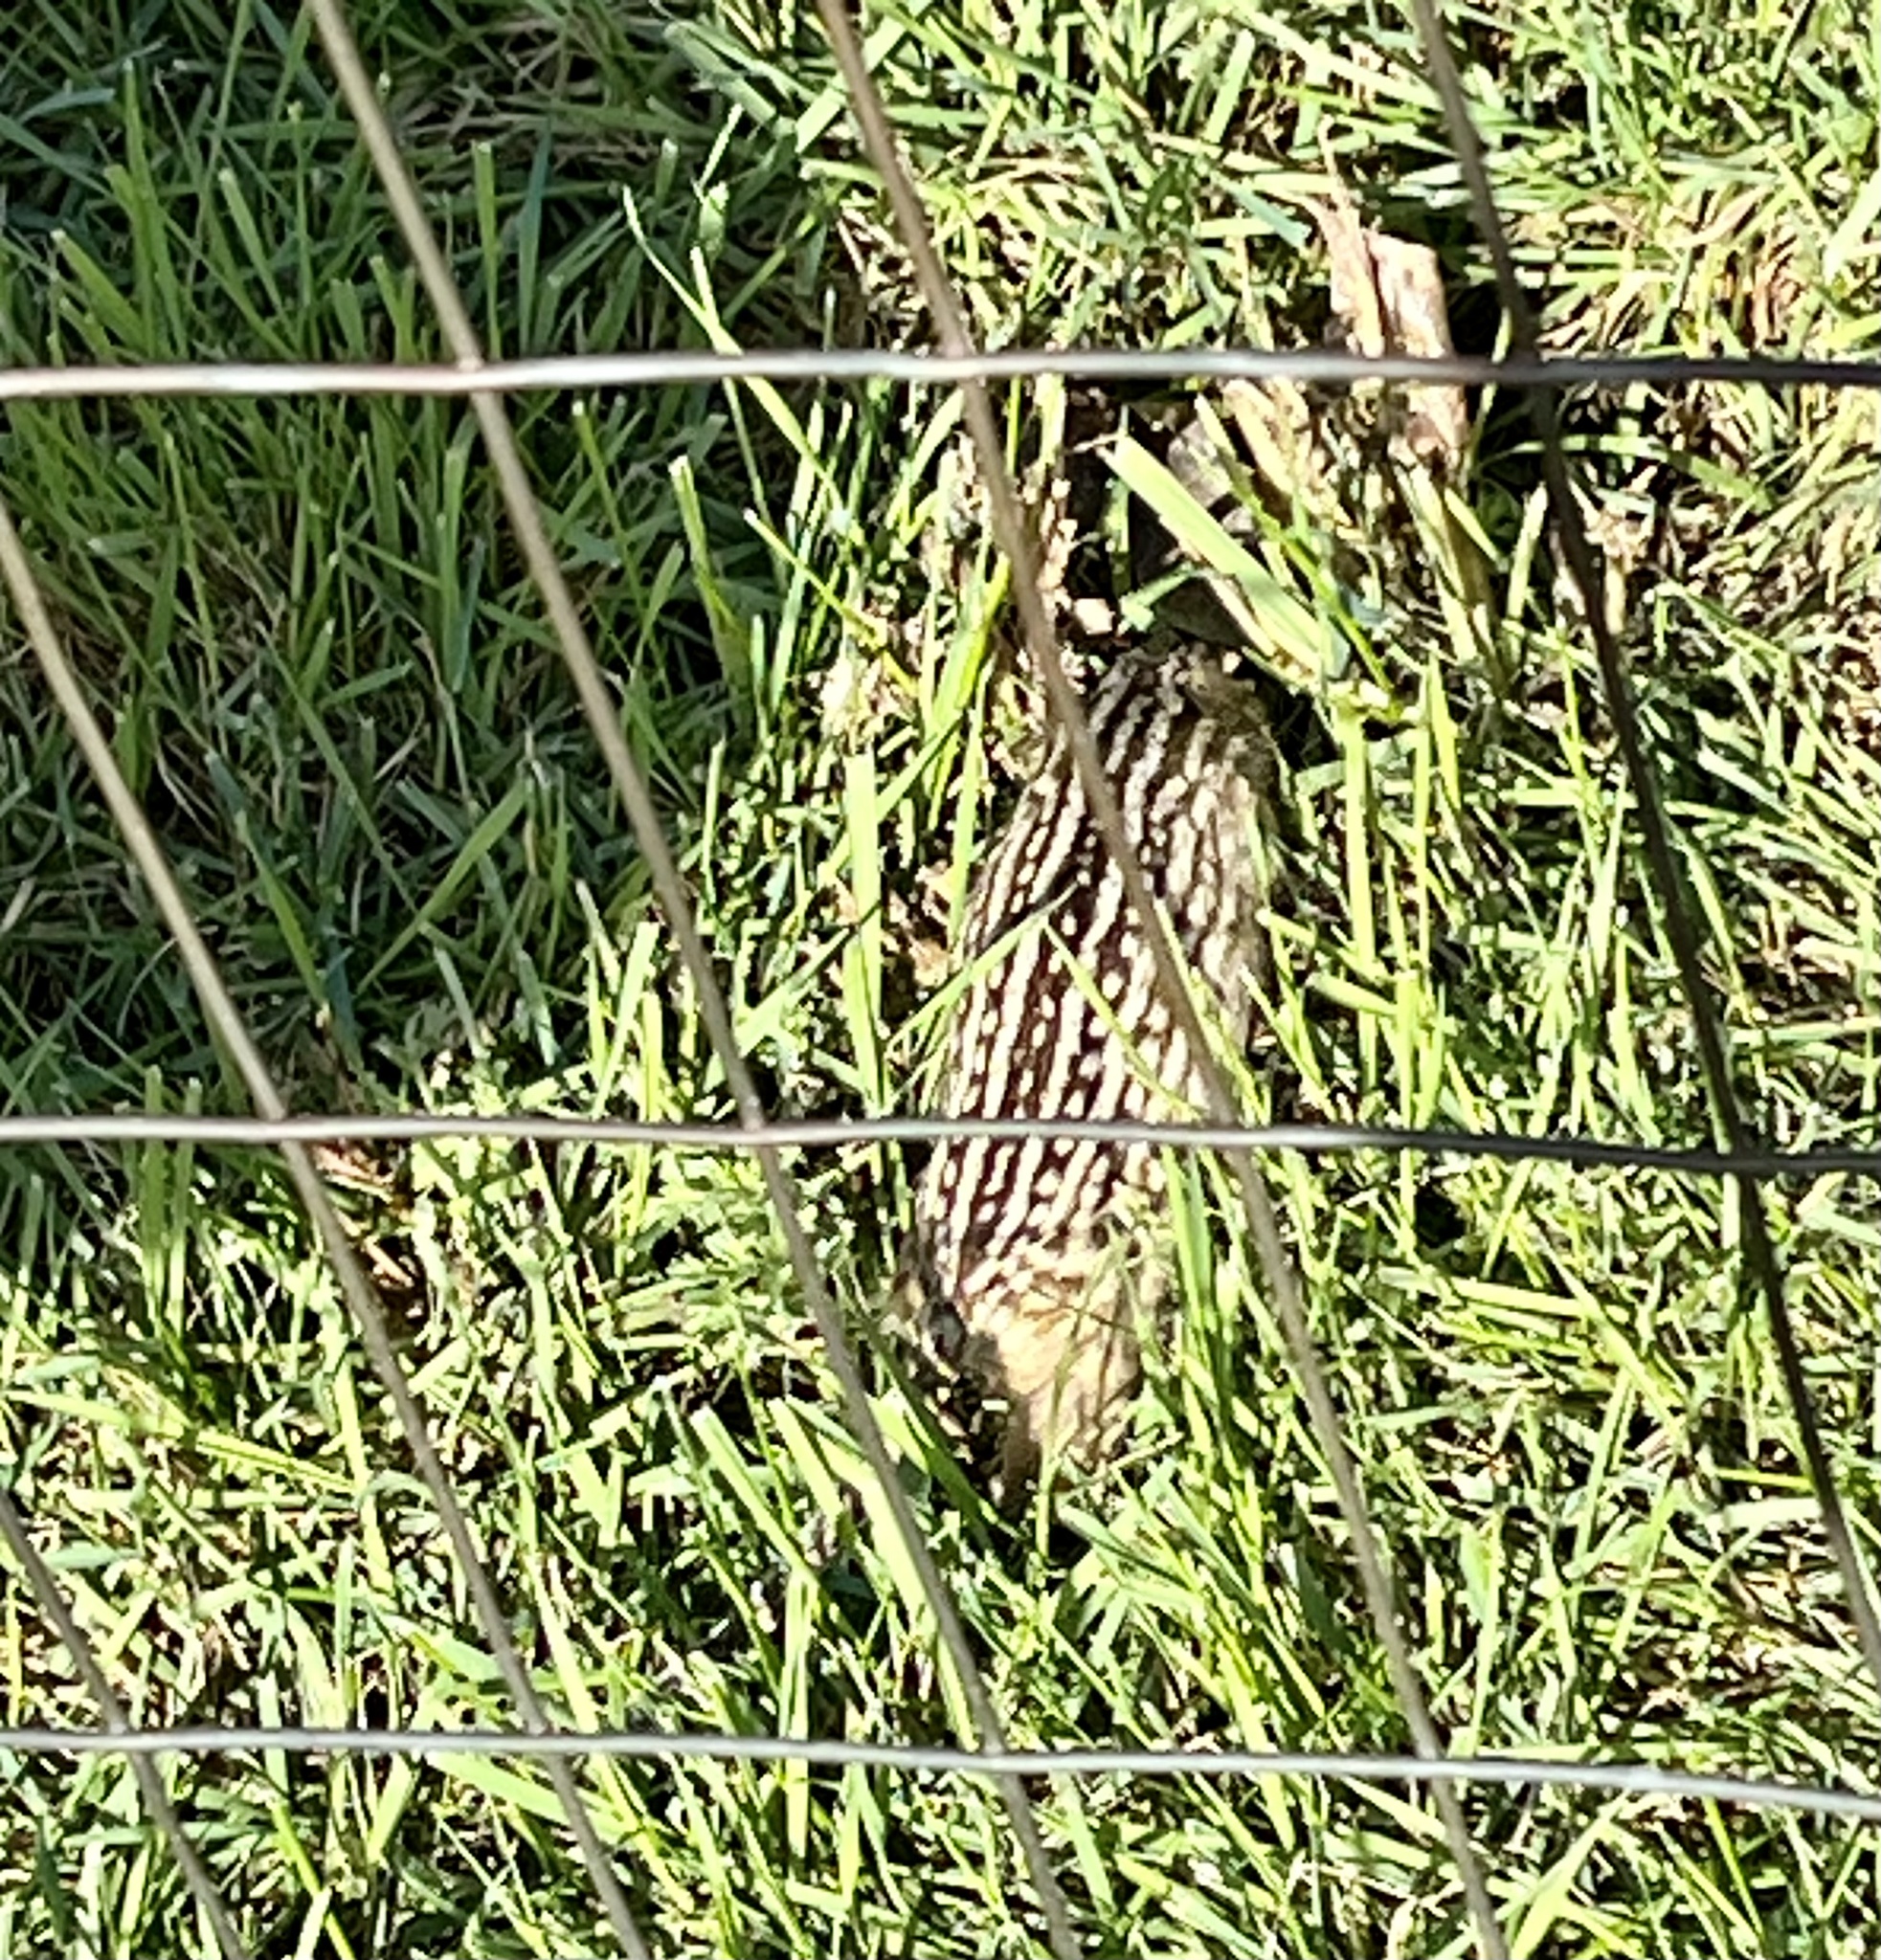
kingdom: Animalia
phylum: Chordata
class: Mammalia
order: Rodentia
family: Sciuridae
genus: Ictidomys
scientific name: Ictidomys tridecemlineatus
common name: Thirteen-lined ground squirrel
